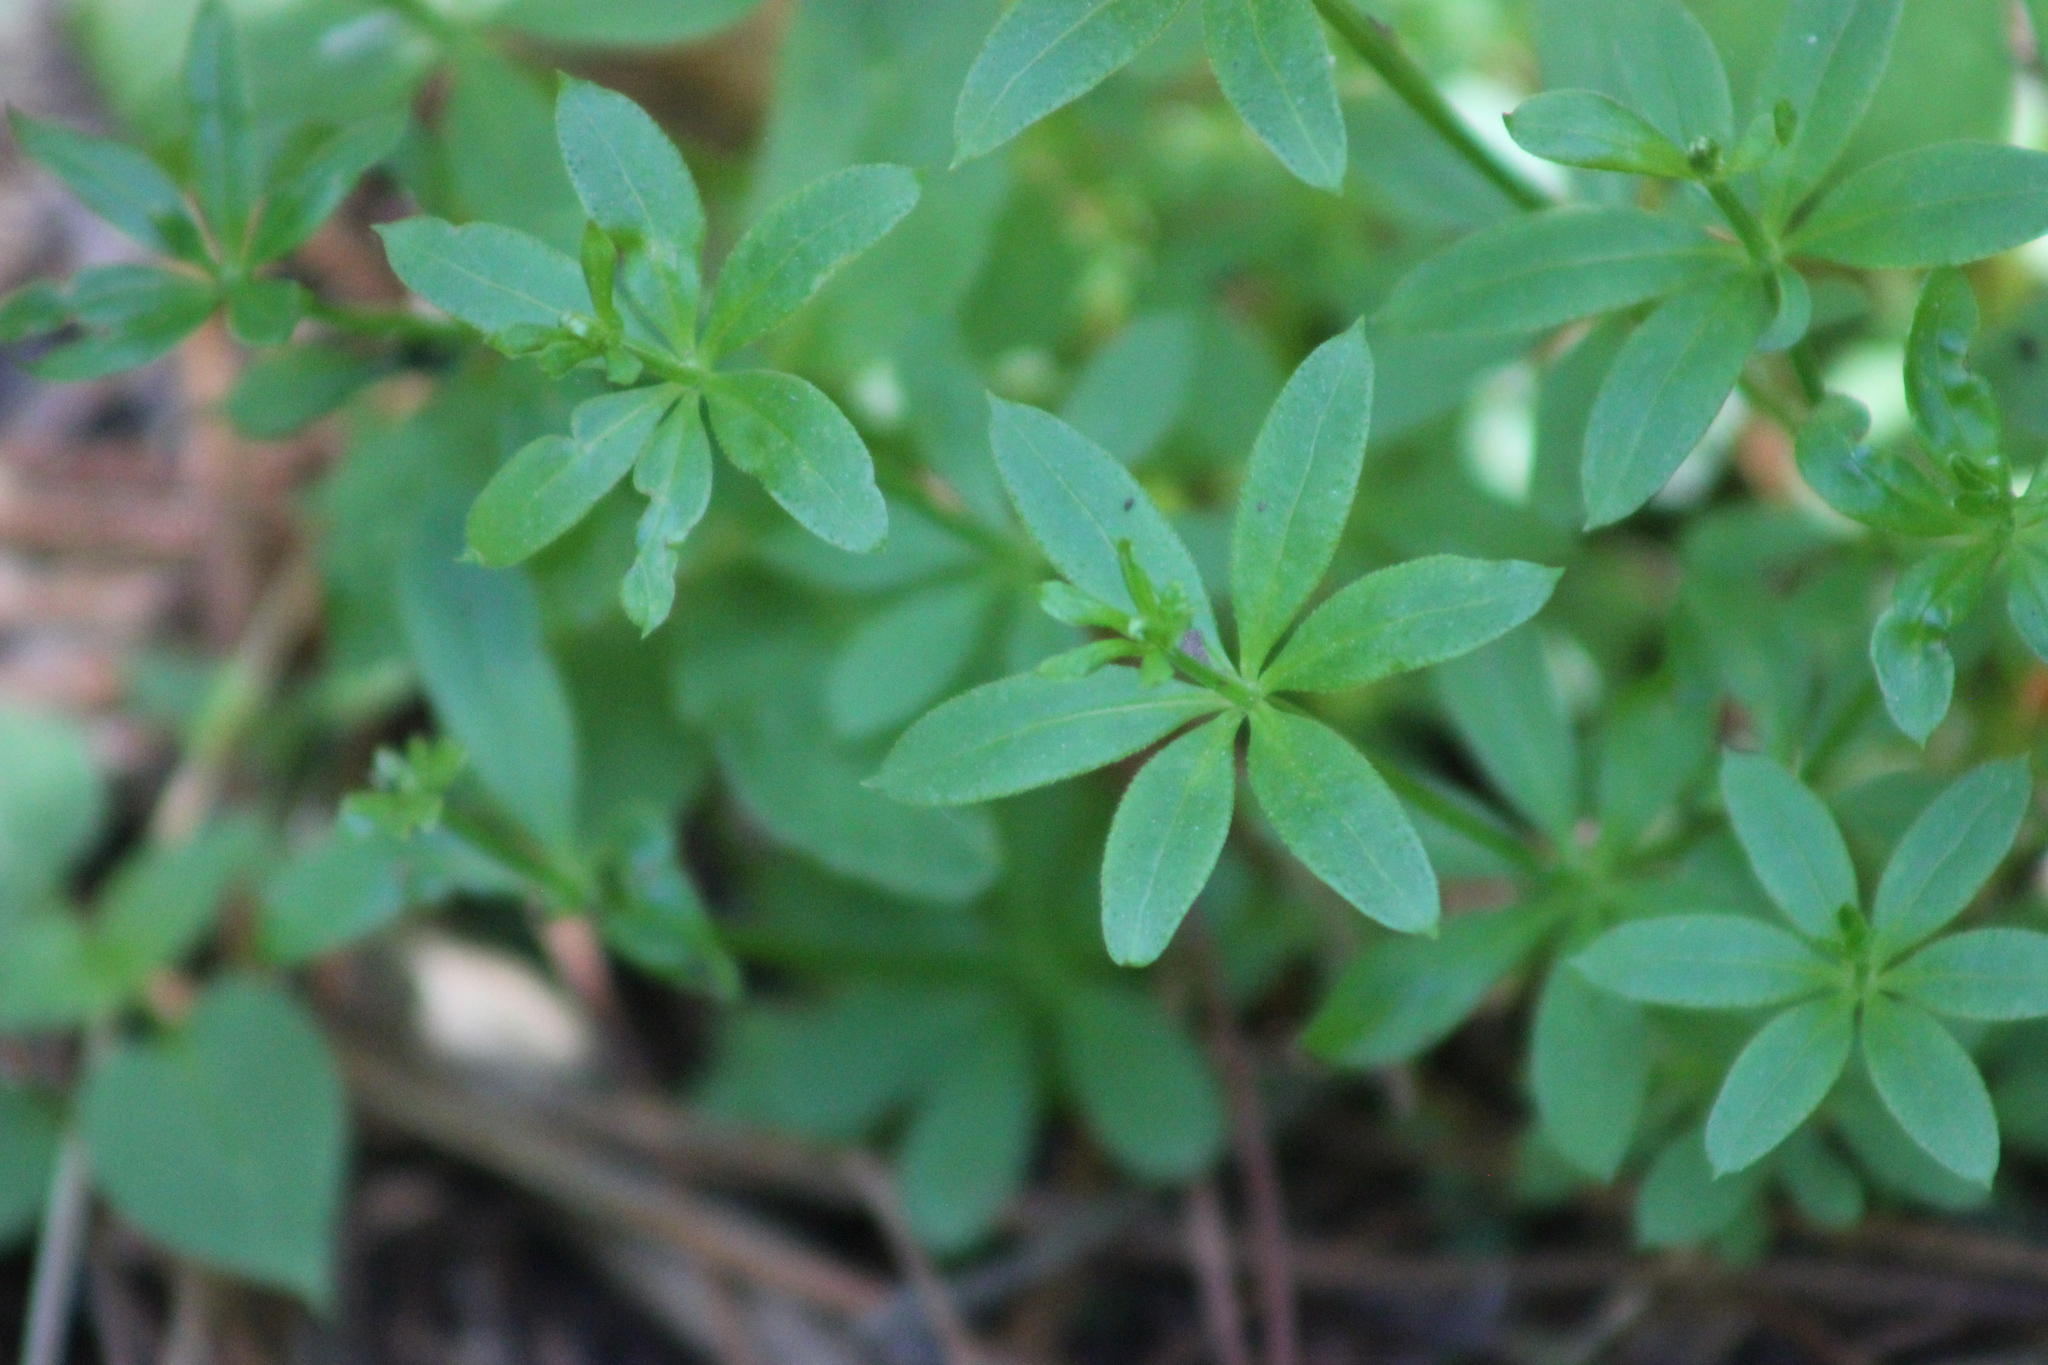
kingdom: Plantae
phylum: Tracheophyta
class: Magnoliopsida
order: Gentianales
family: Rubiaceae
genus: Galium
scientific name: Galium triflorum
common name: Fragrant bedstraw
